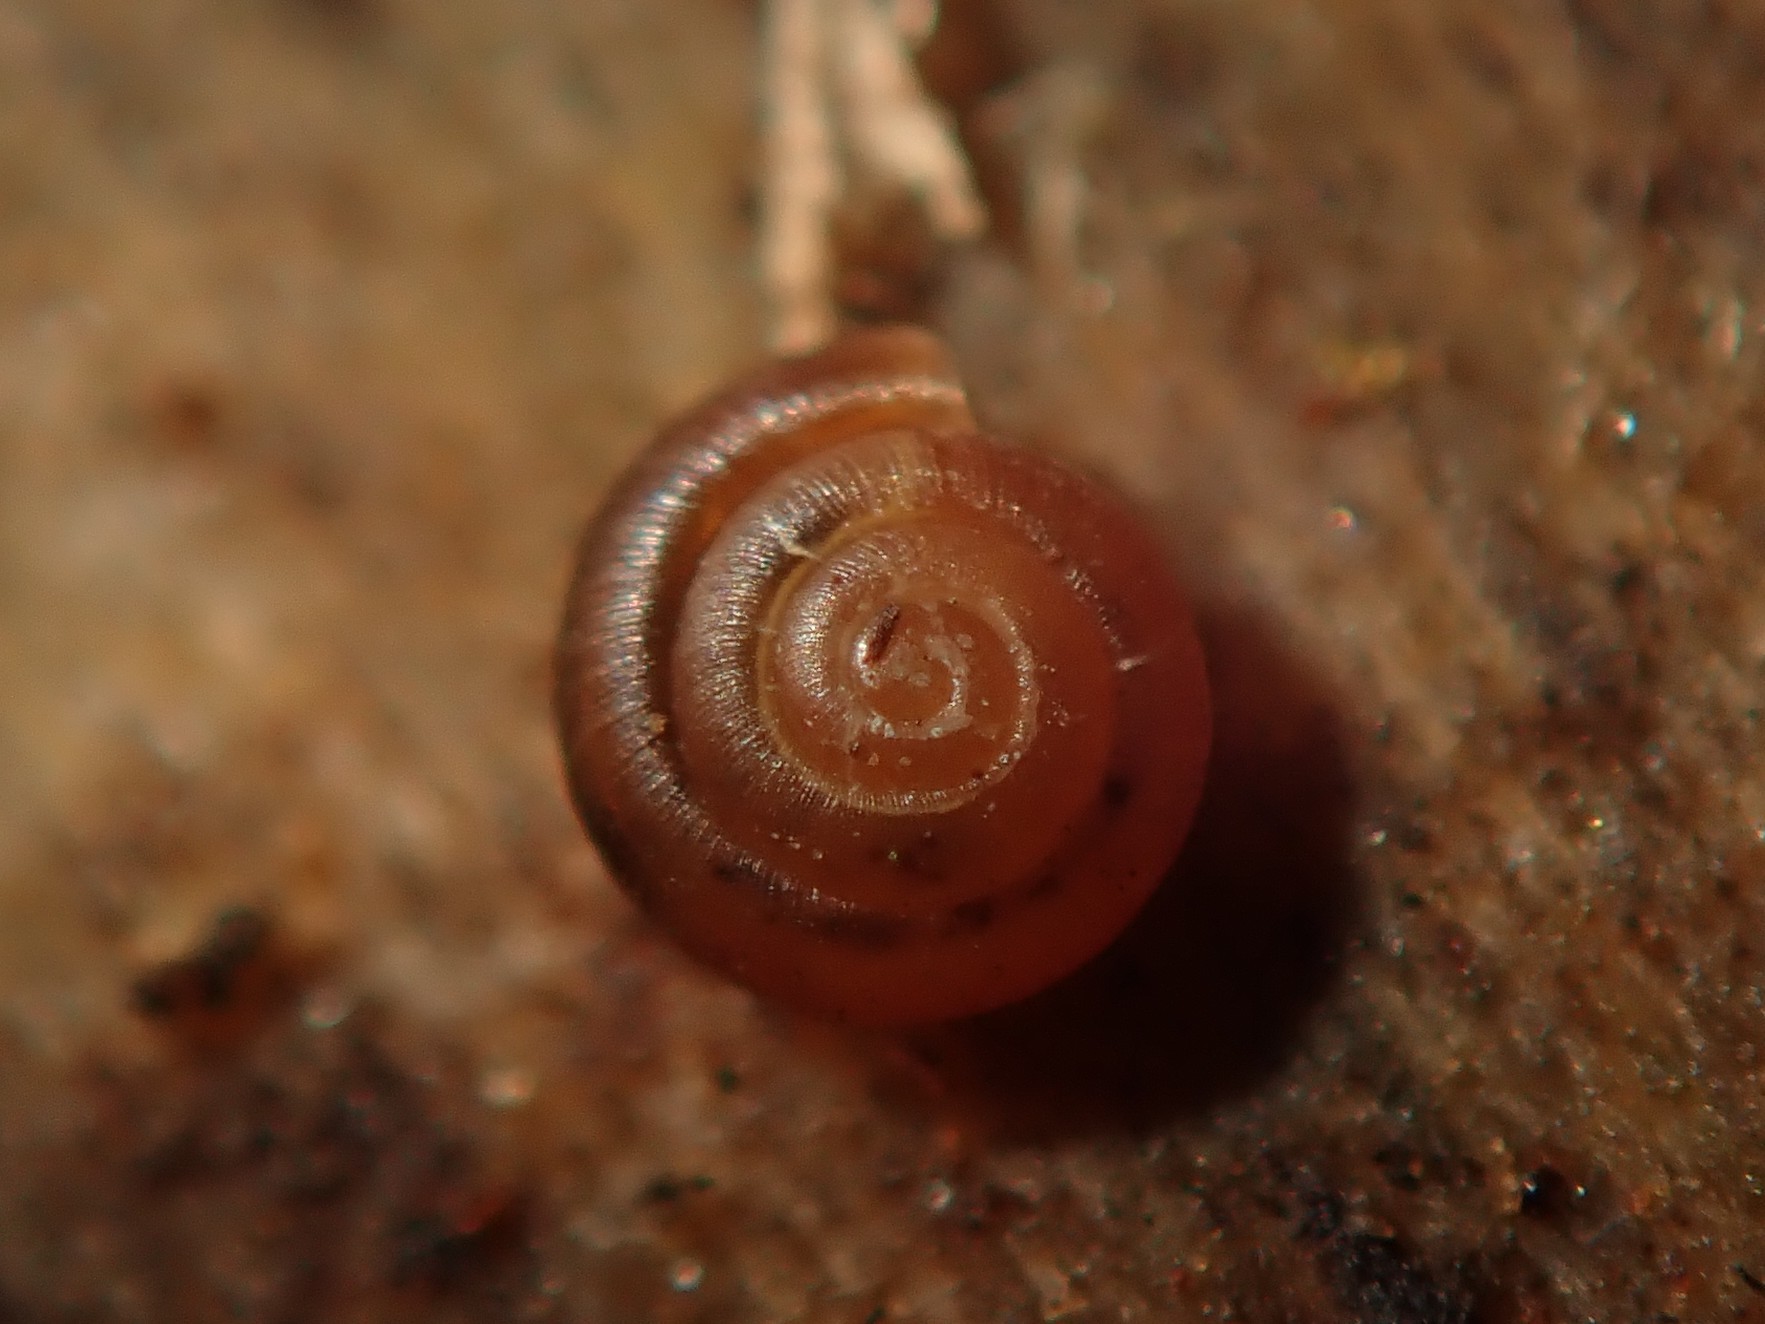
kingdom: Animalia
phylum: Mollusca
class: Gastropoda
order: Stylommatophora
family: Punctidae
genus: Punctum
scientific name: Punctum pygmaeum
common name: Dwarf snail
